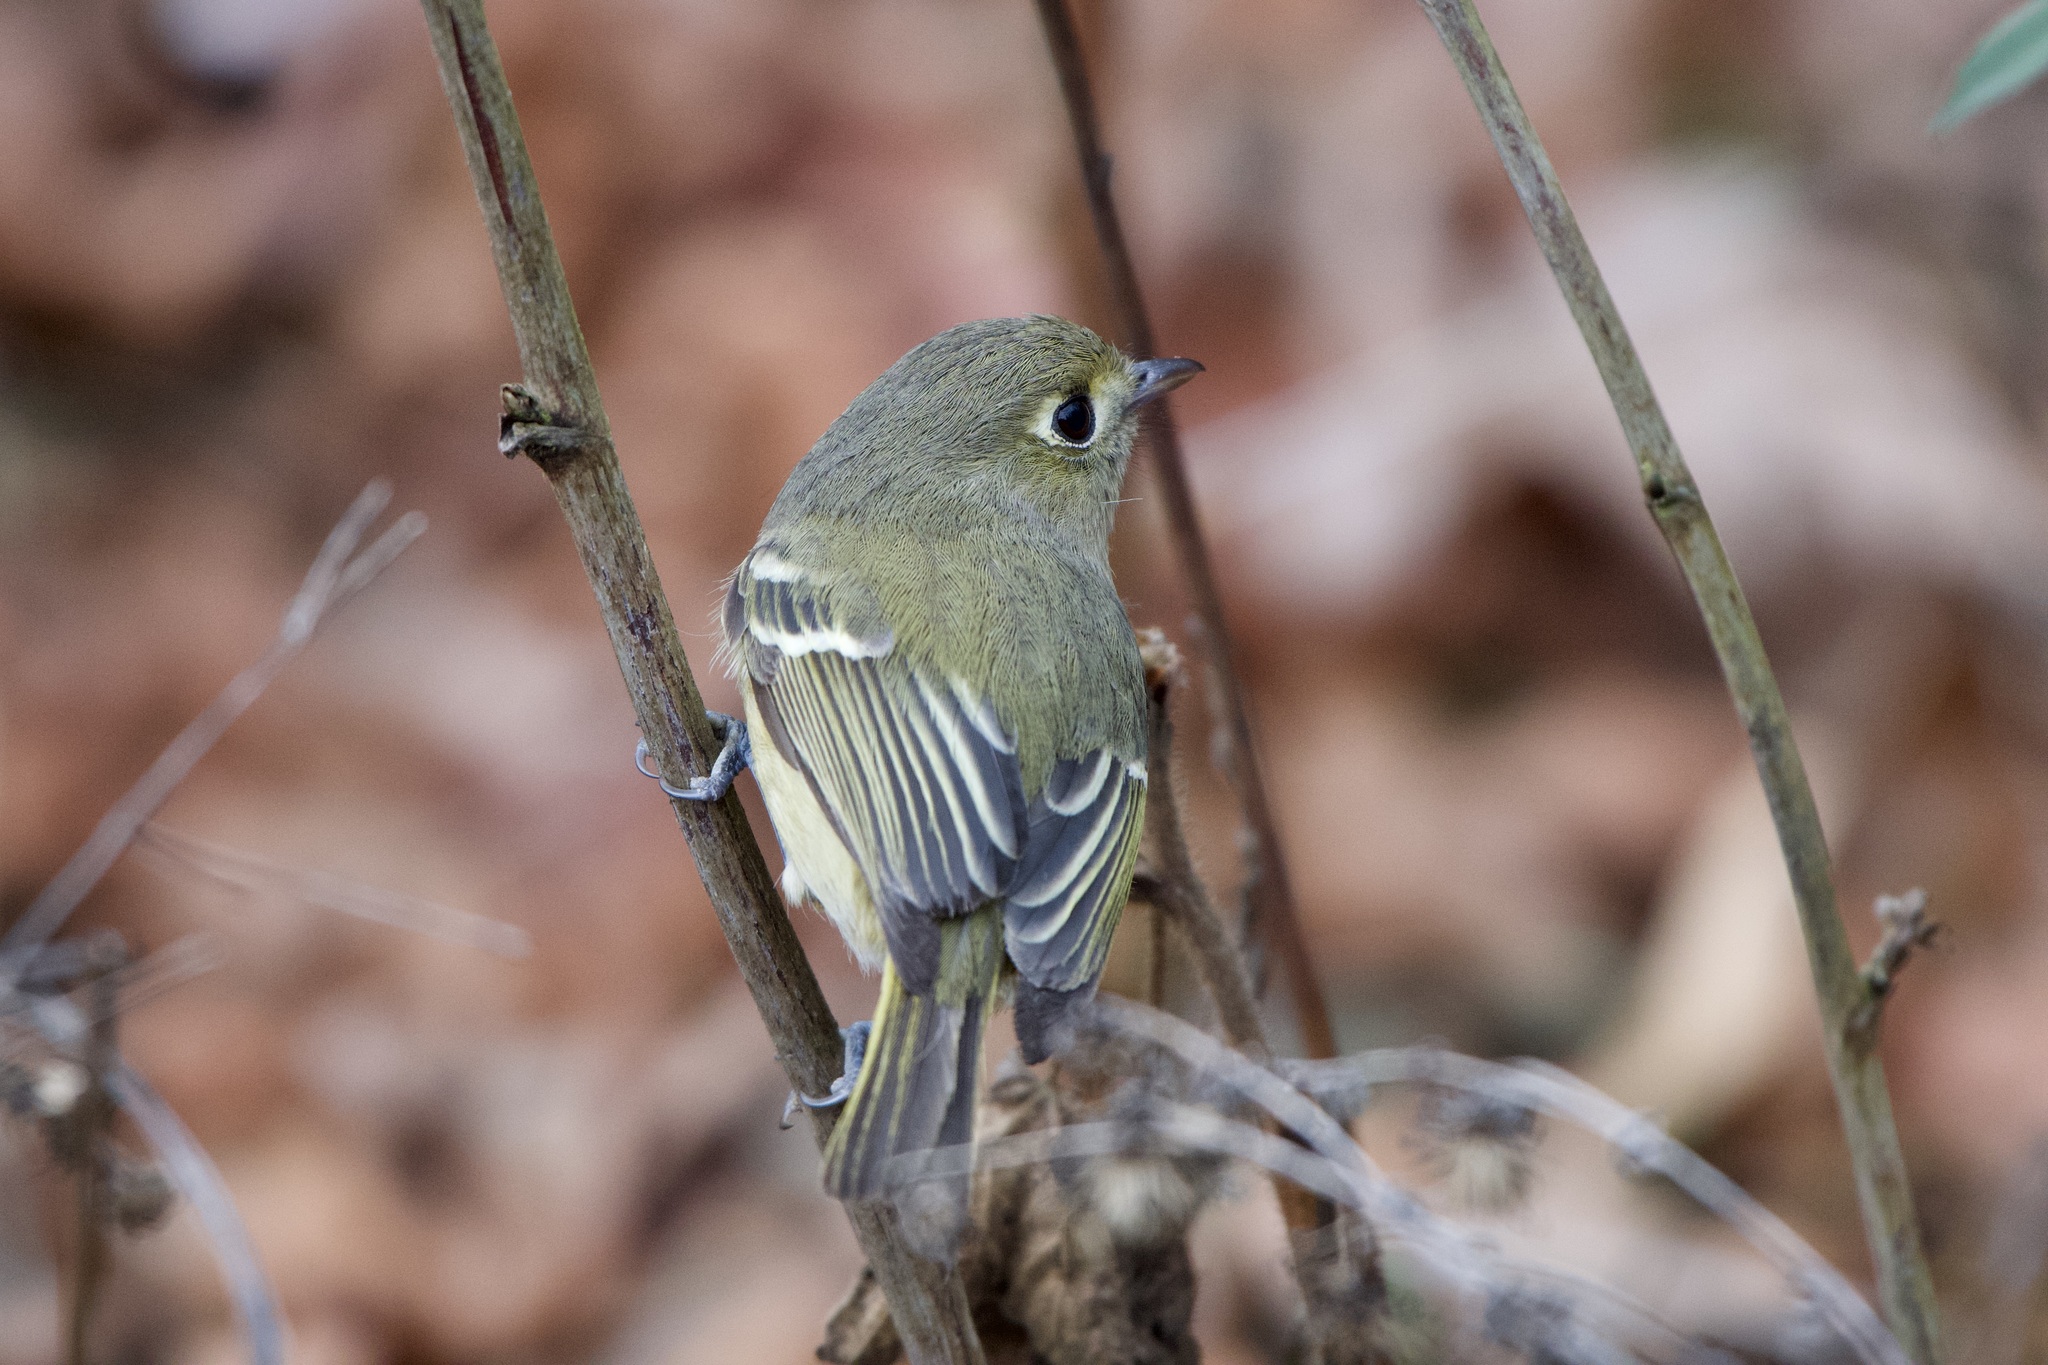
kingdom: Animalia
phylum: Chordata
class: Aves
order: Passeriformes
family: Vireonidae
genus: Vireo
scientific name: Vireo huttoni
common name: Hutton's vireo
